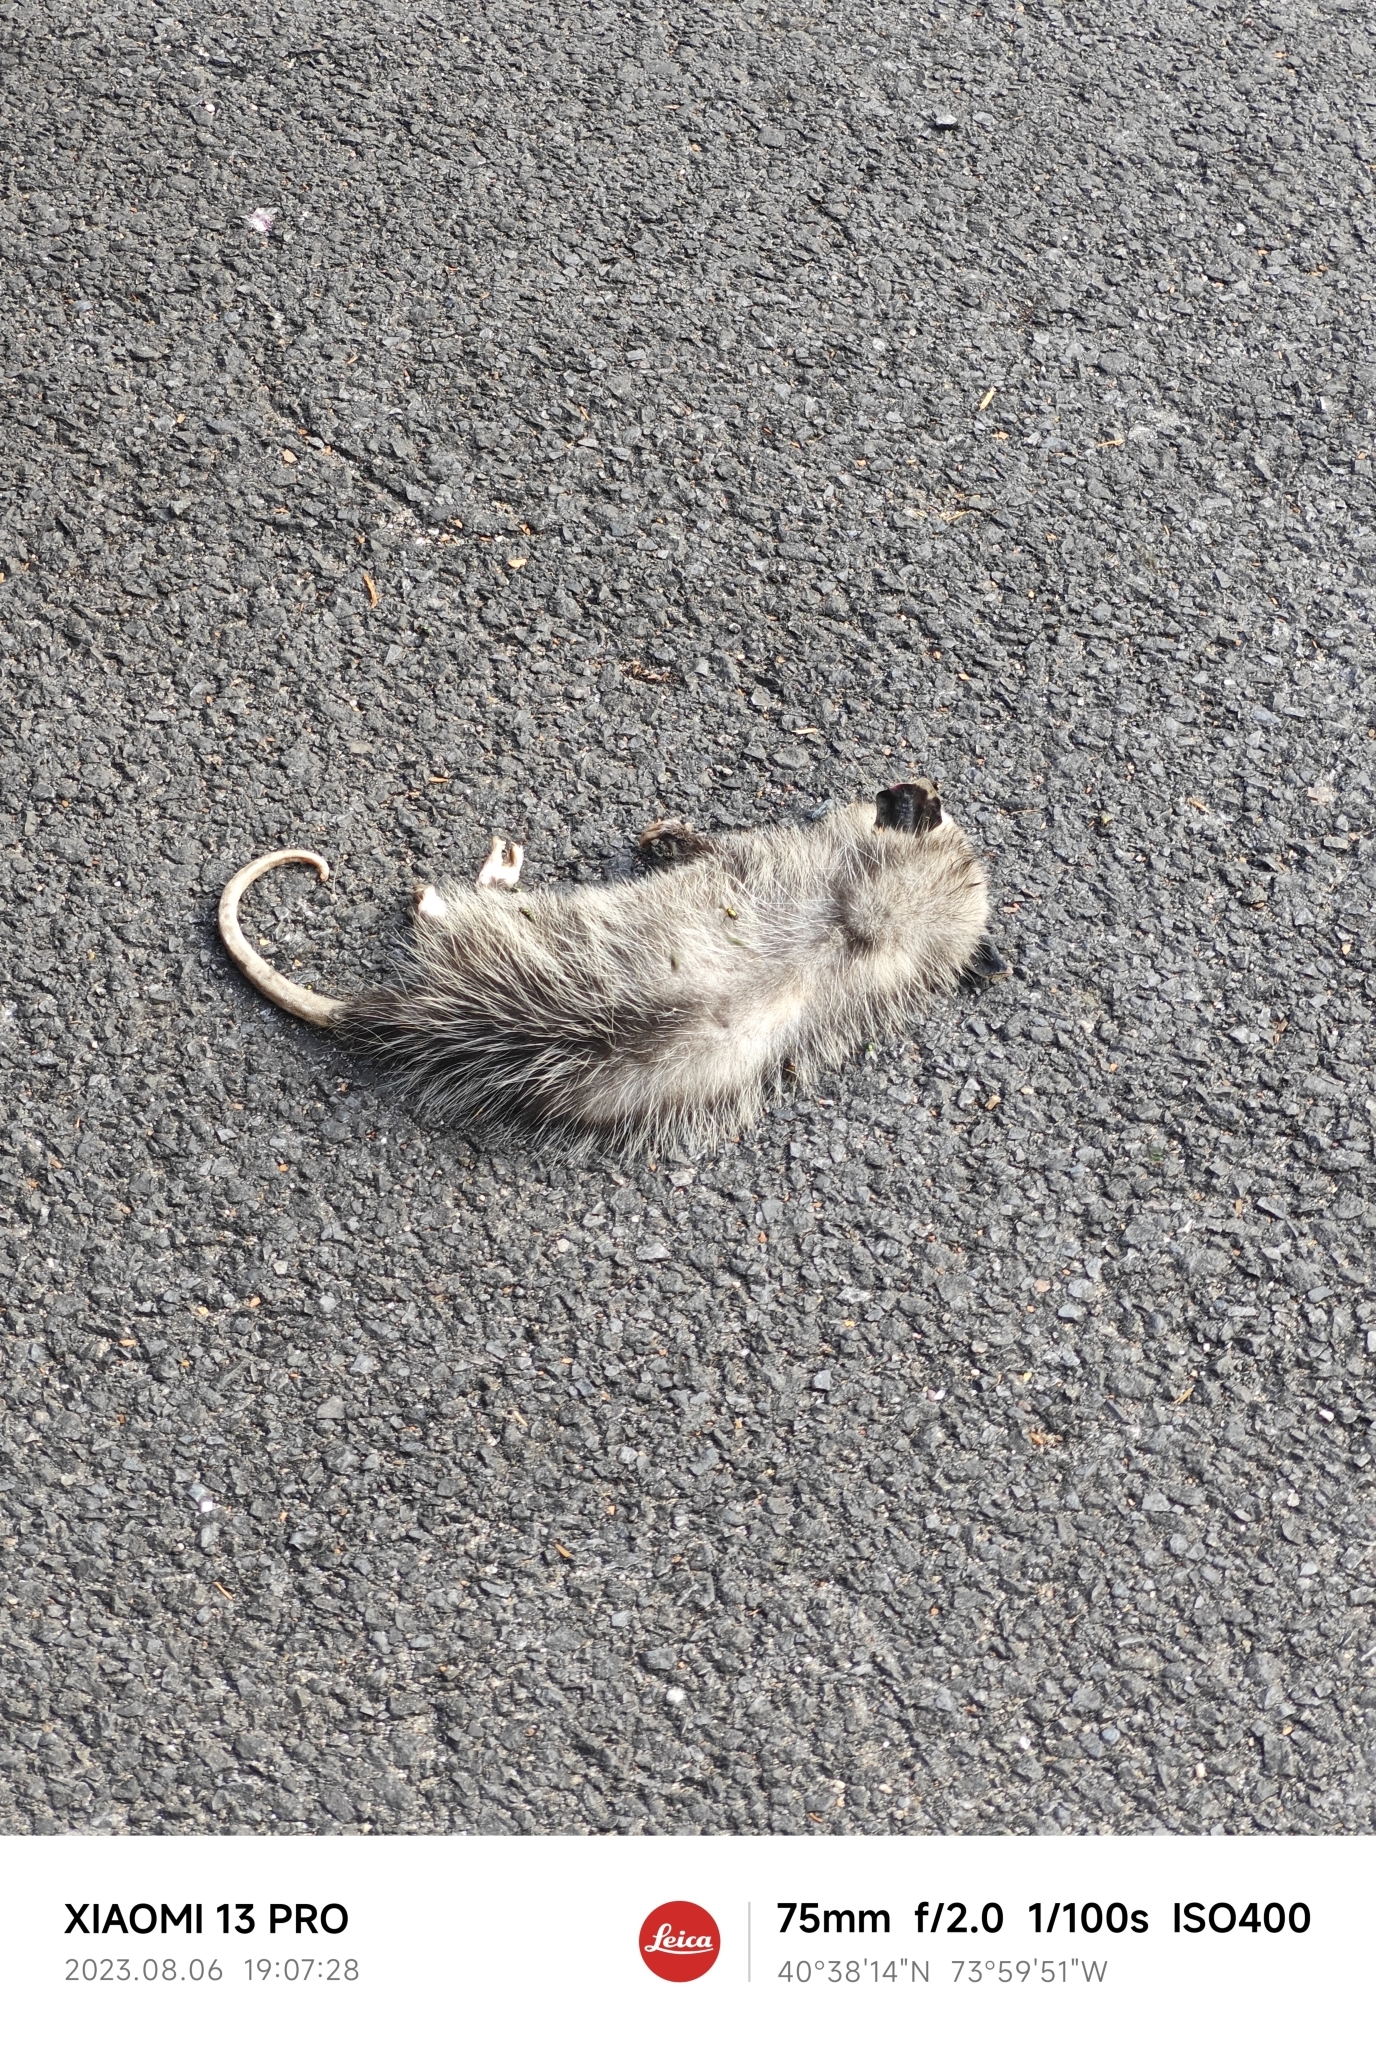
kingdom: Animalia
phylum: Chordata
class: Mammalia
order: Didelphimorphia
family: Didelphidae
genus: Didelphis
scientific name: Didelphis virginiana
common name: Virginia opossum
